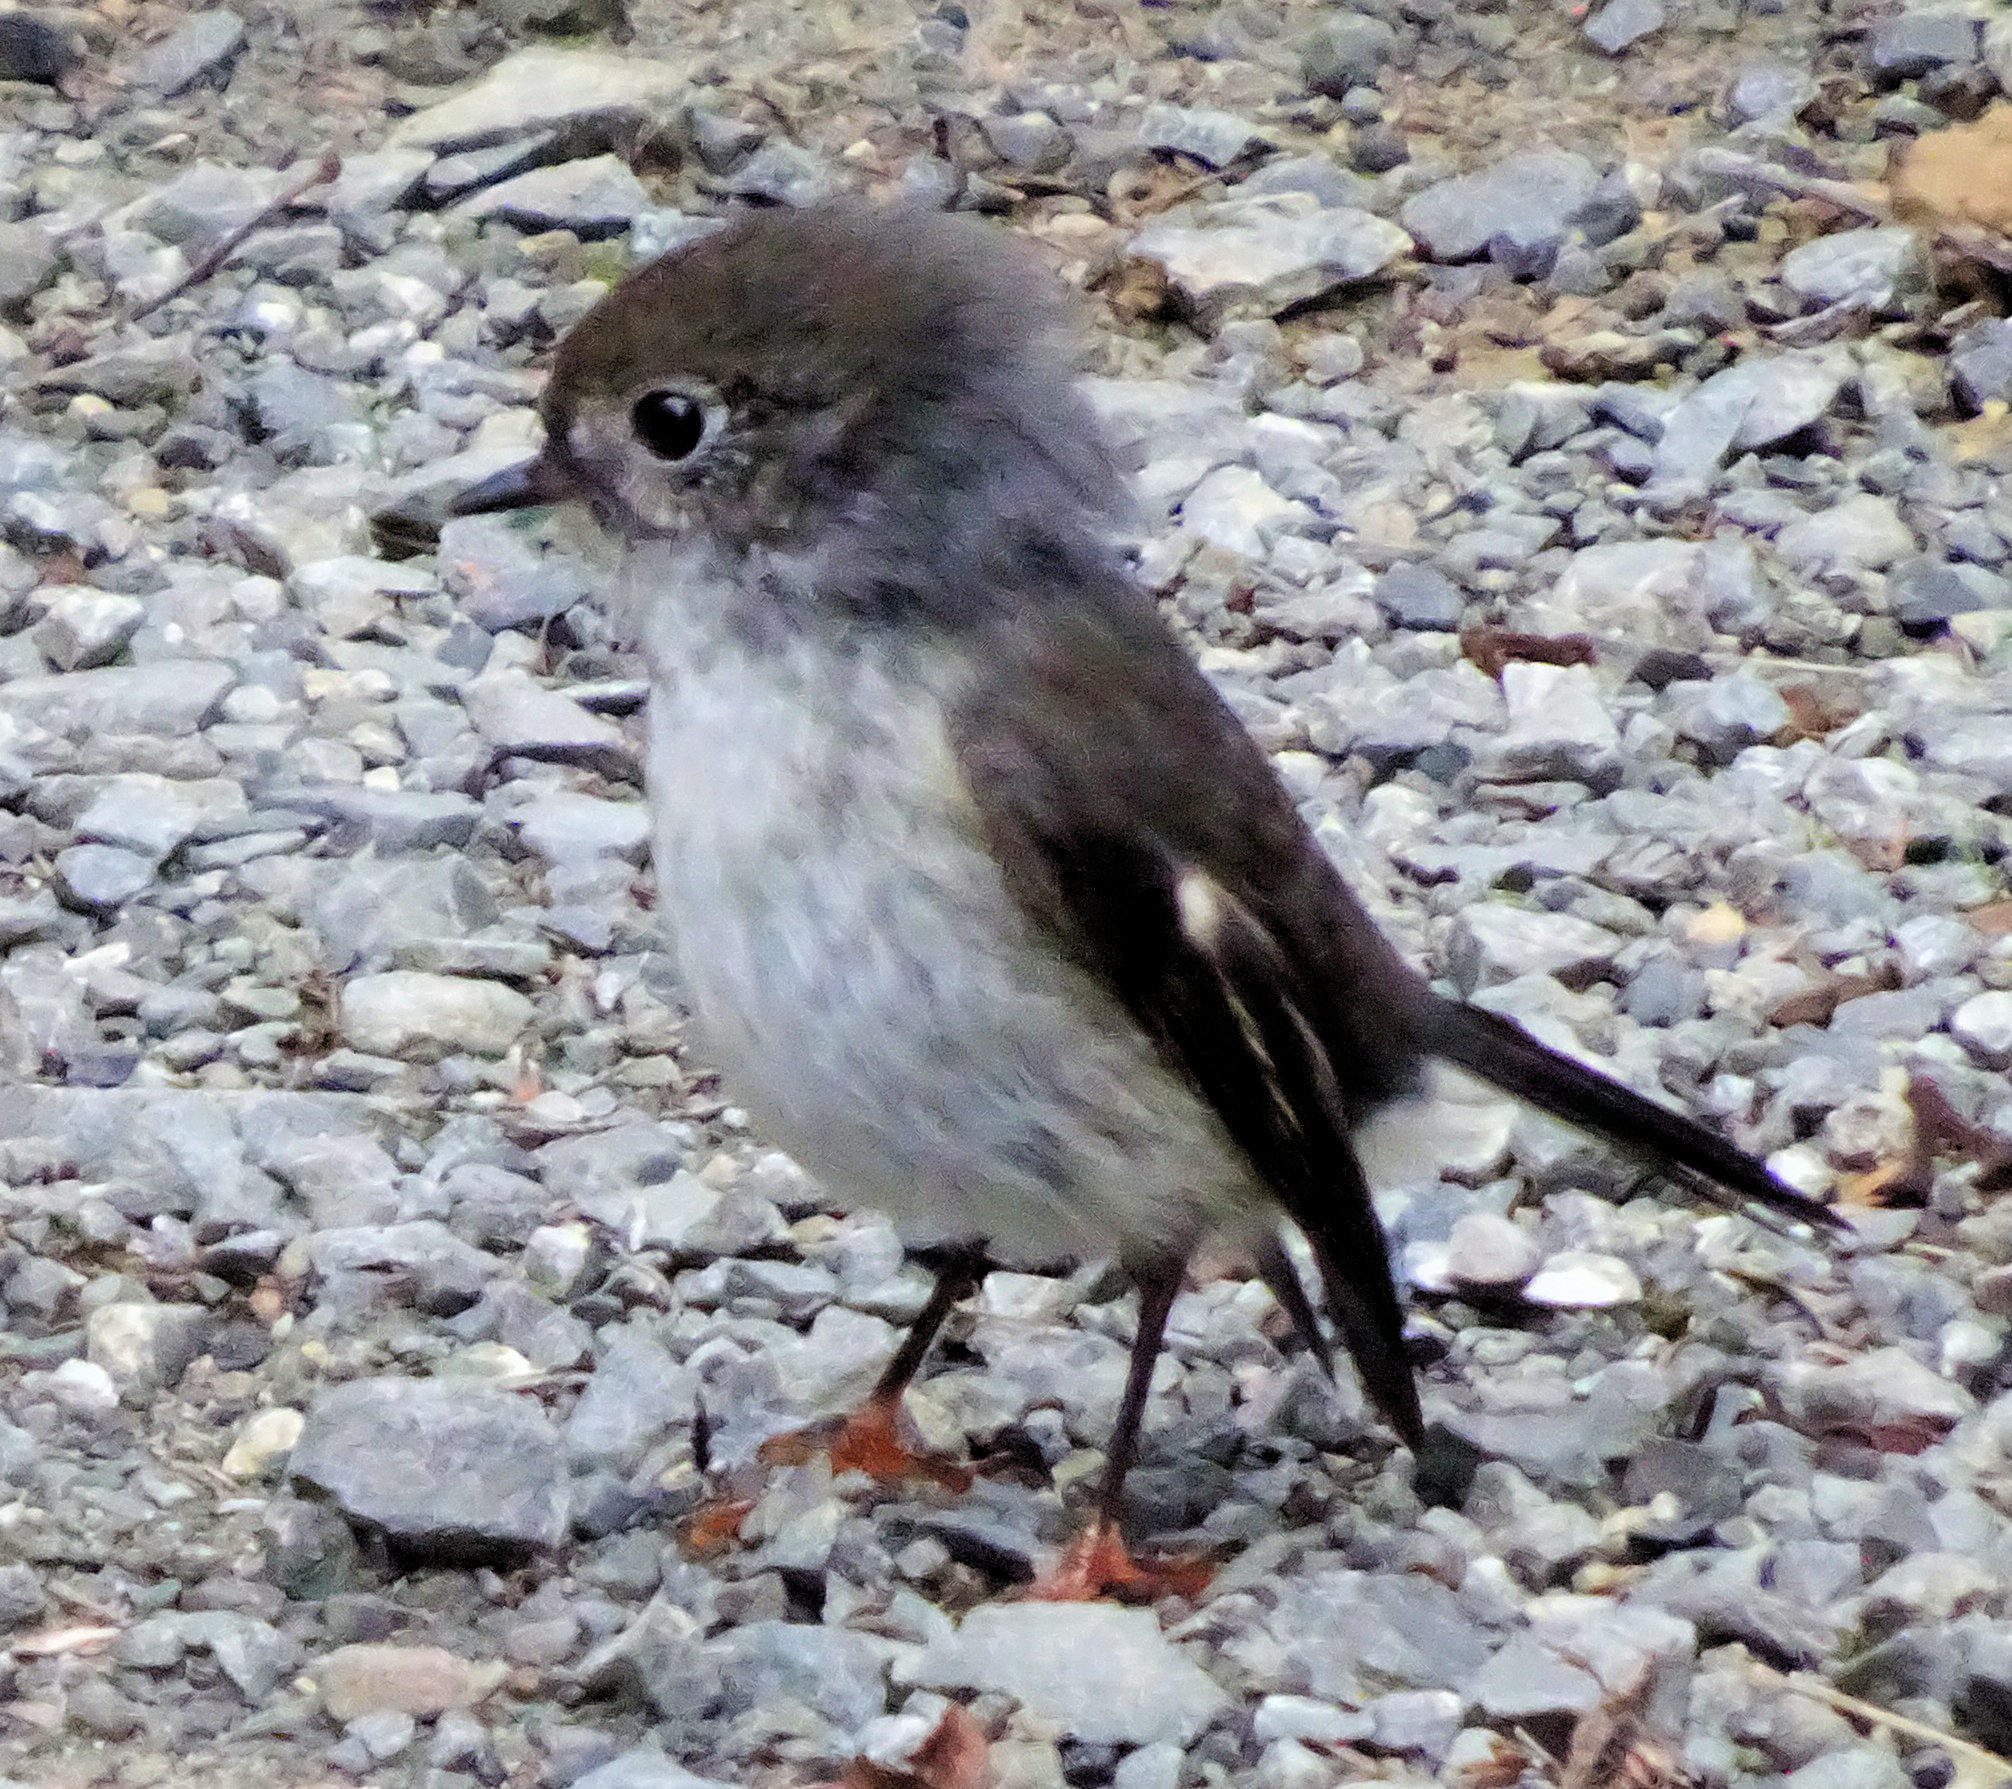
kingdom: Animalia
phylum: Chordata
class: Aves
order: Passeriformes
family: Petroicidae
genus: Petroica
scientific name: Petroica macrocephala
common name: Tomtit
